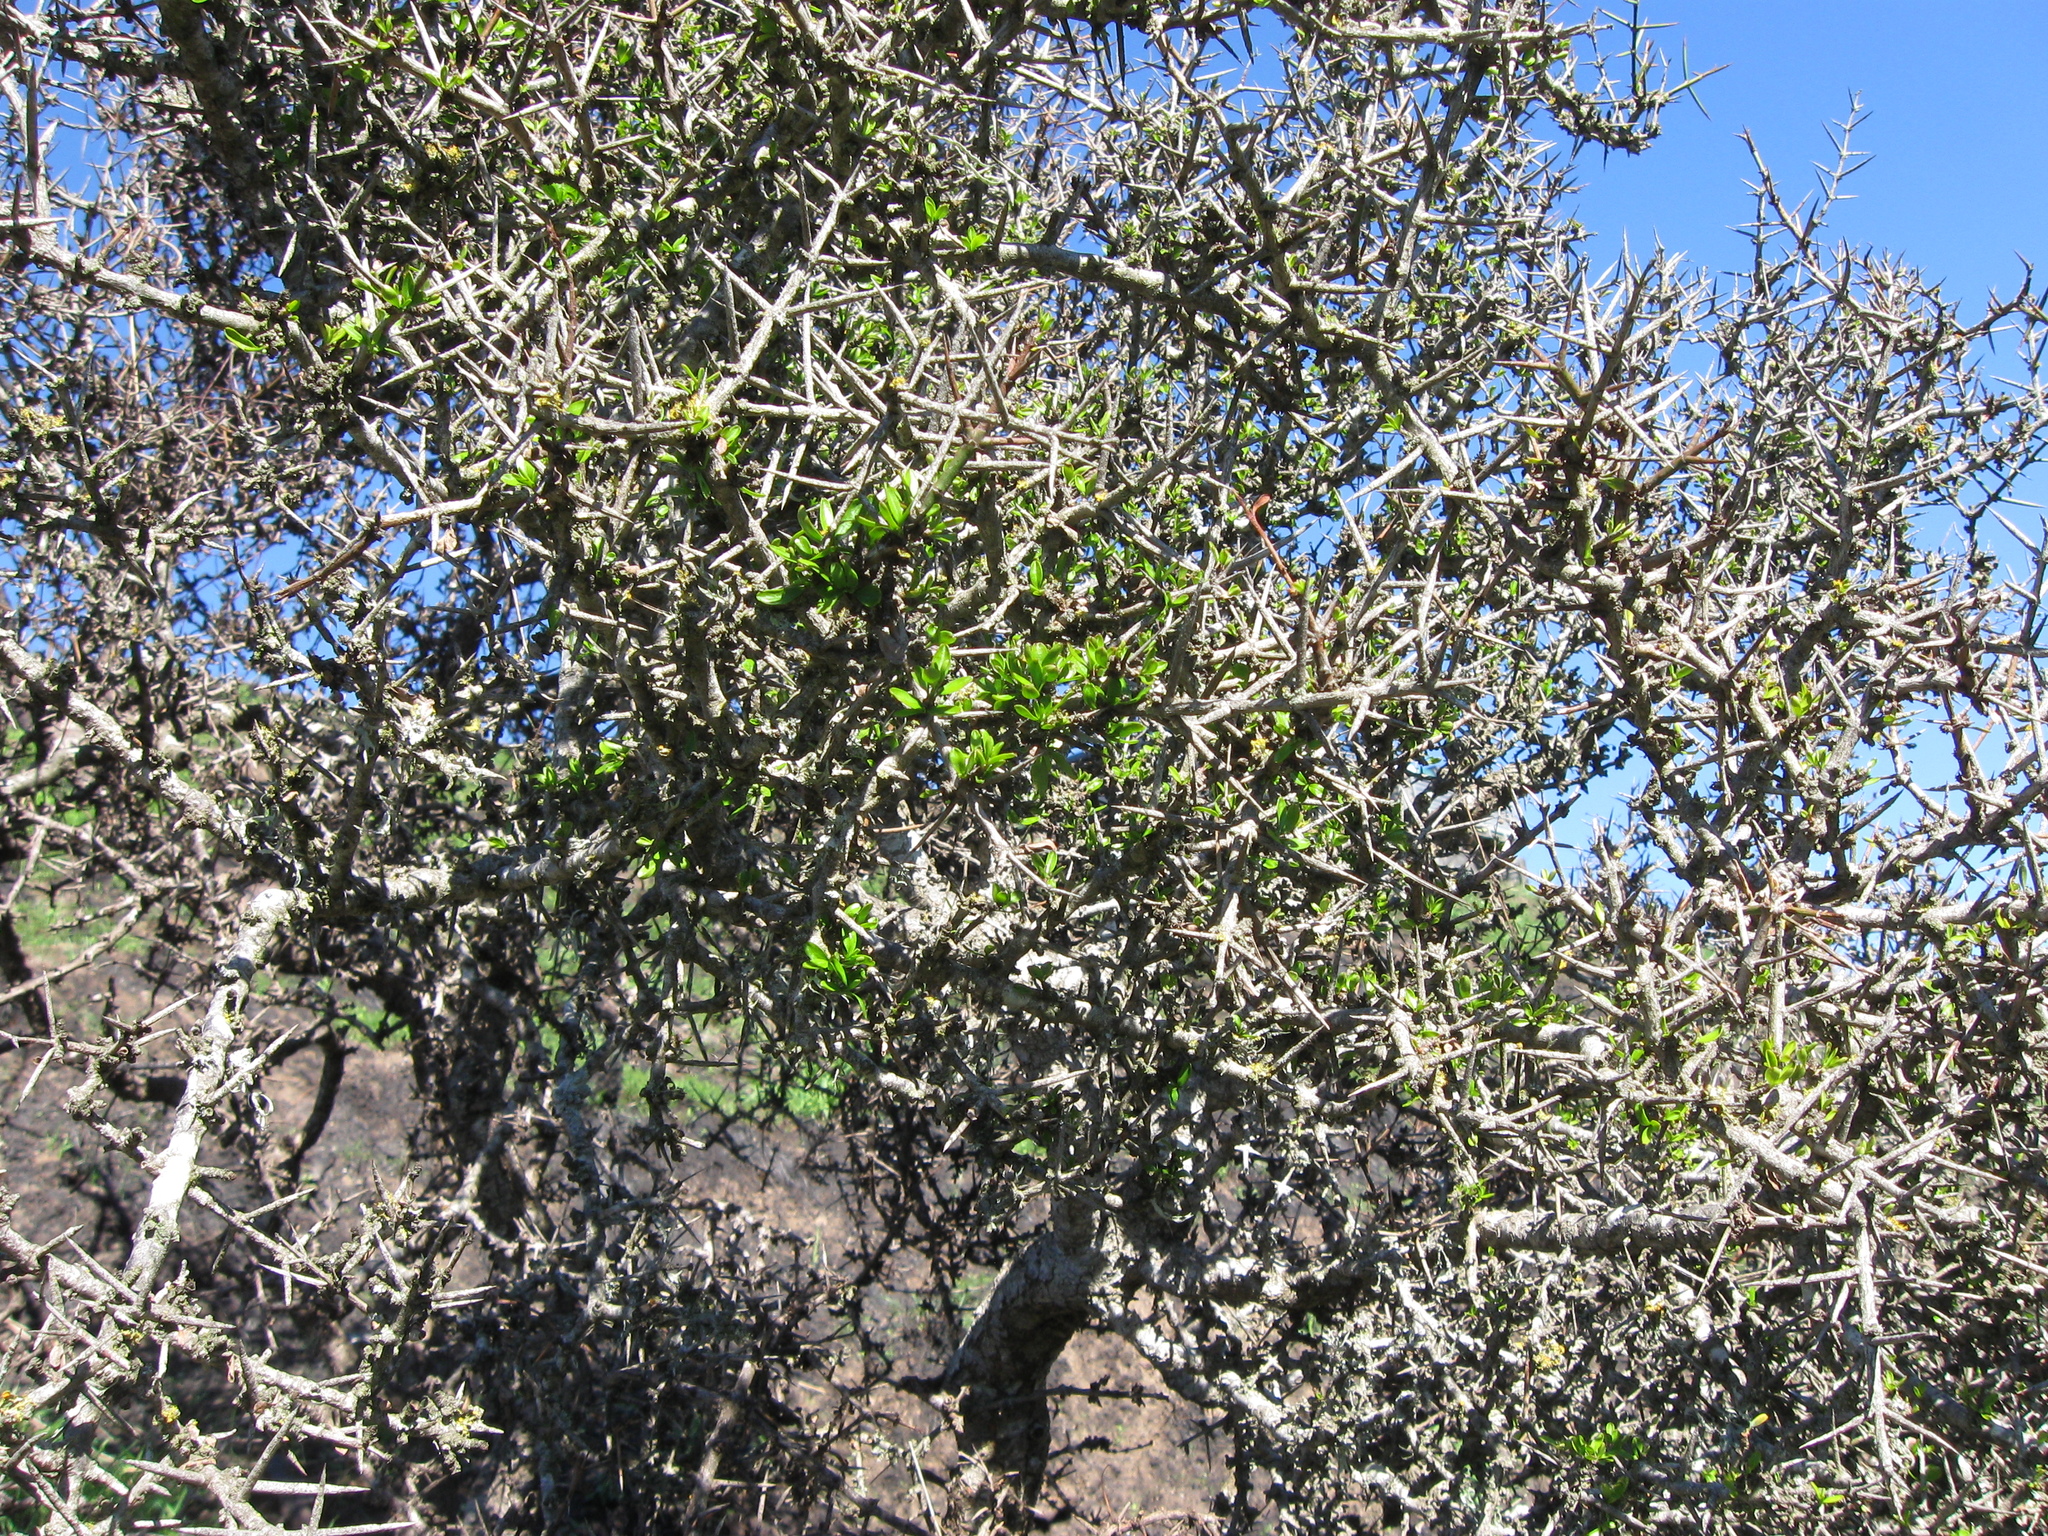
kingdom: Plantae
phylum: Tracheophyta
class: Magnoliopsida
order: Rosales
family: Rhamnaceae
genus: Discaria
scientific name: Discaria toumatou
